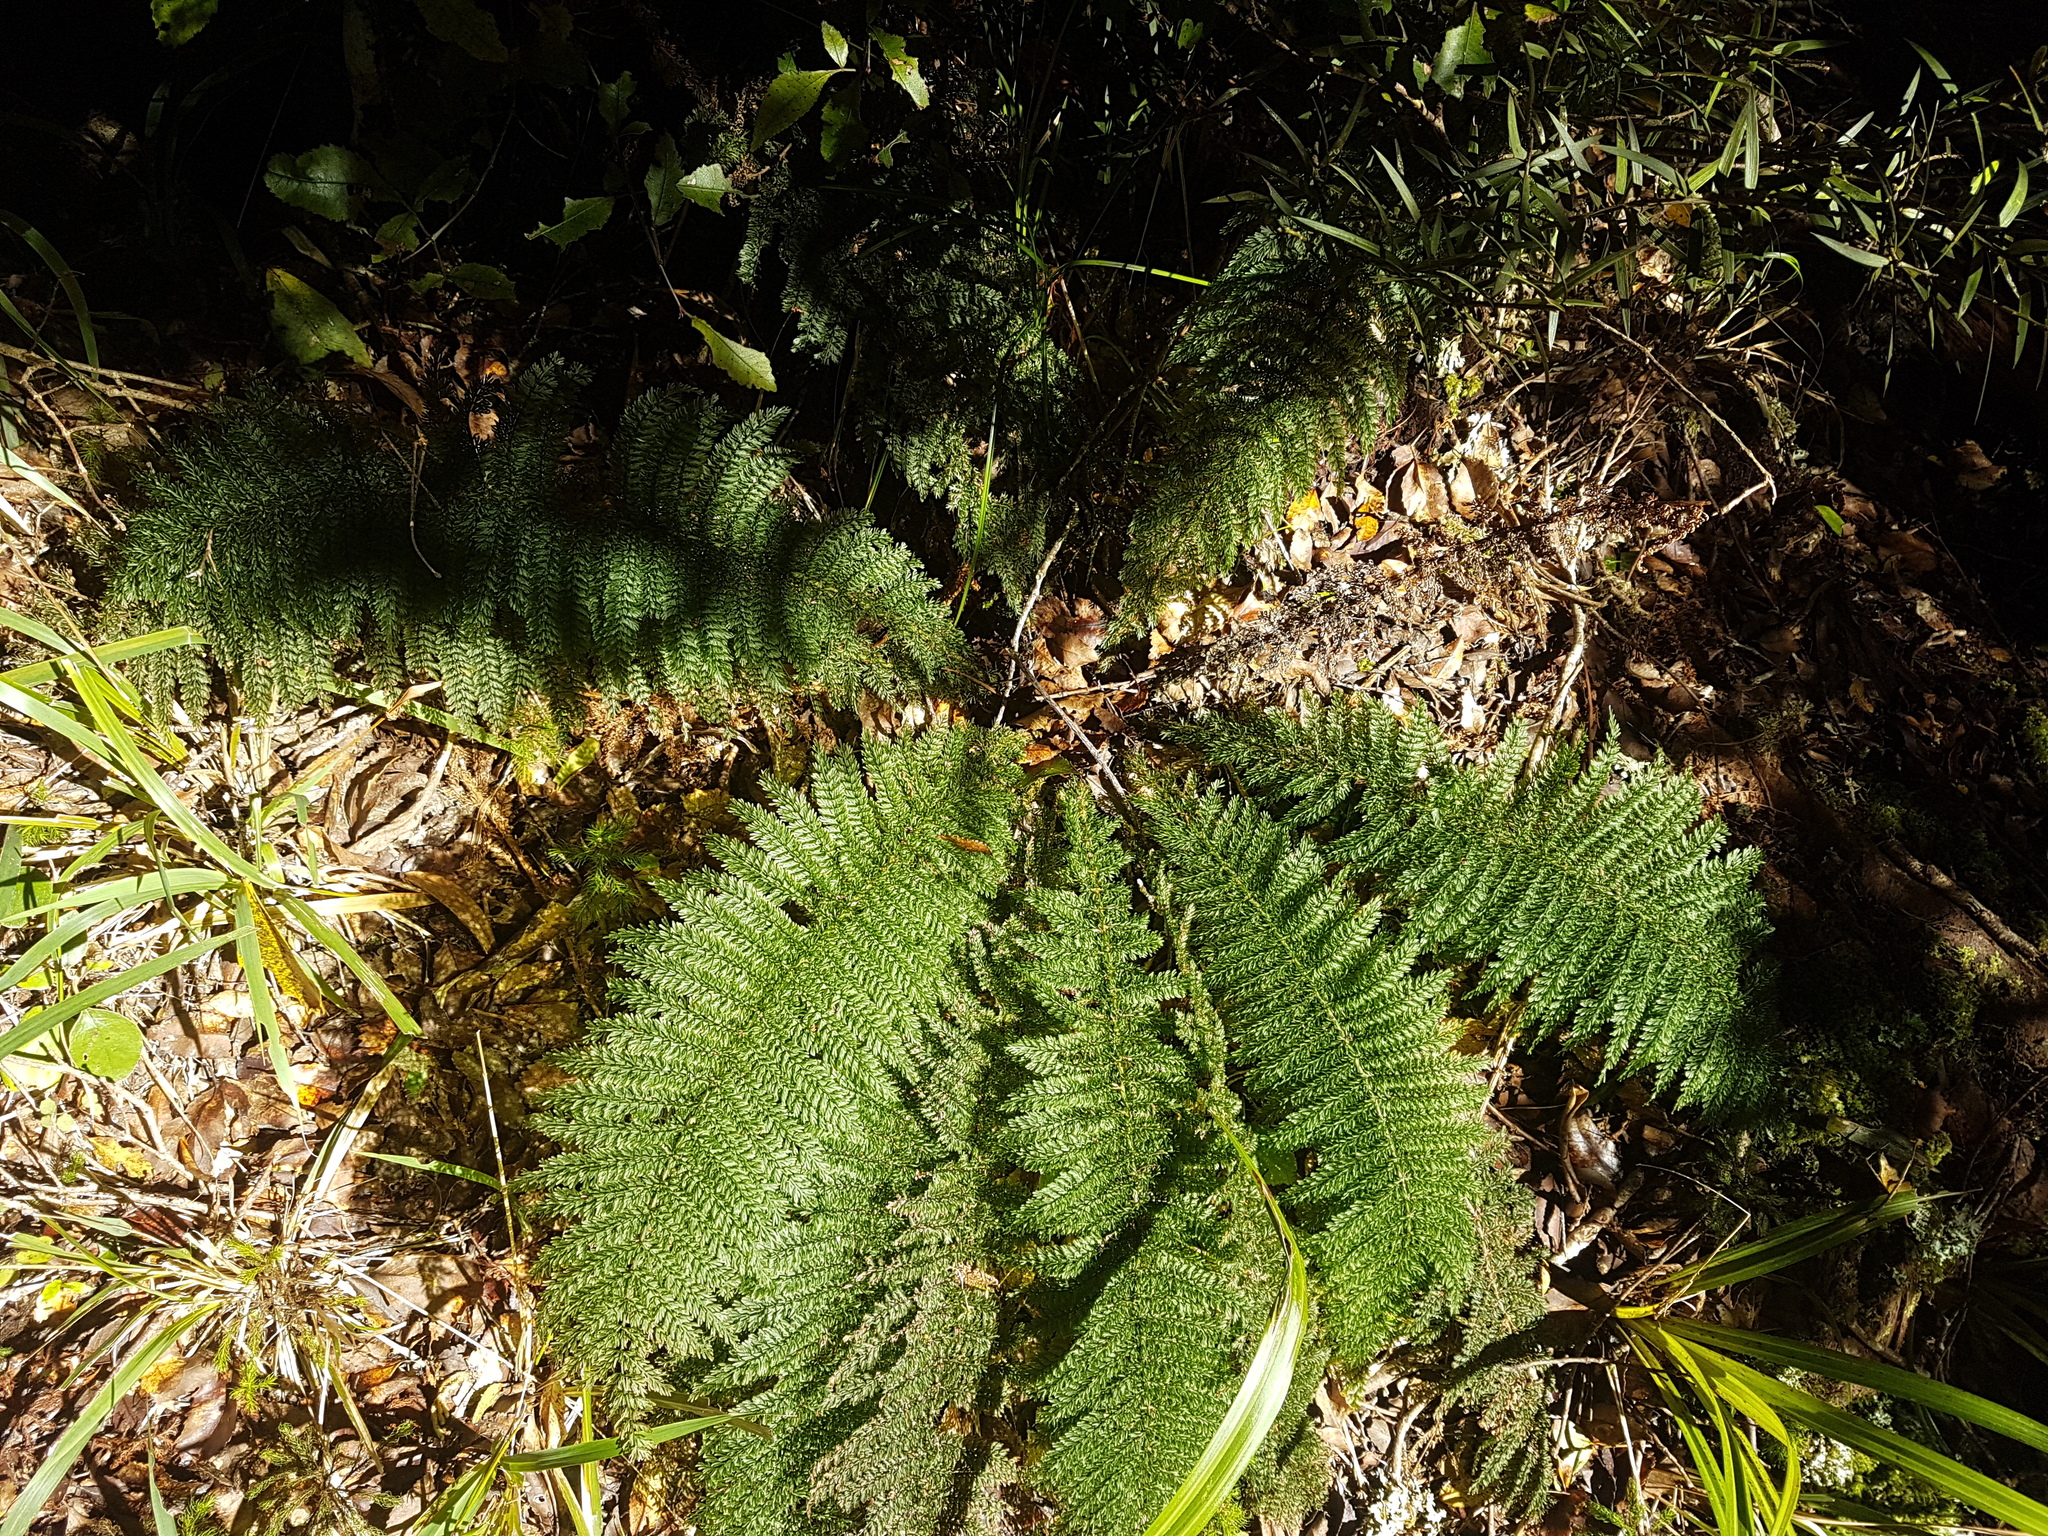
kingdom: Plantae
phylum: Tracheophyta
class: Polypodiopsida
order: Osmundales
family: Osmundaceae
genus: Leptopteris
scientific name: Leptopteris superba
